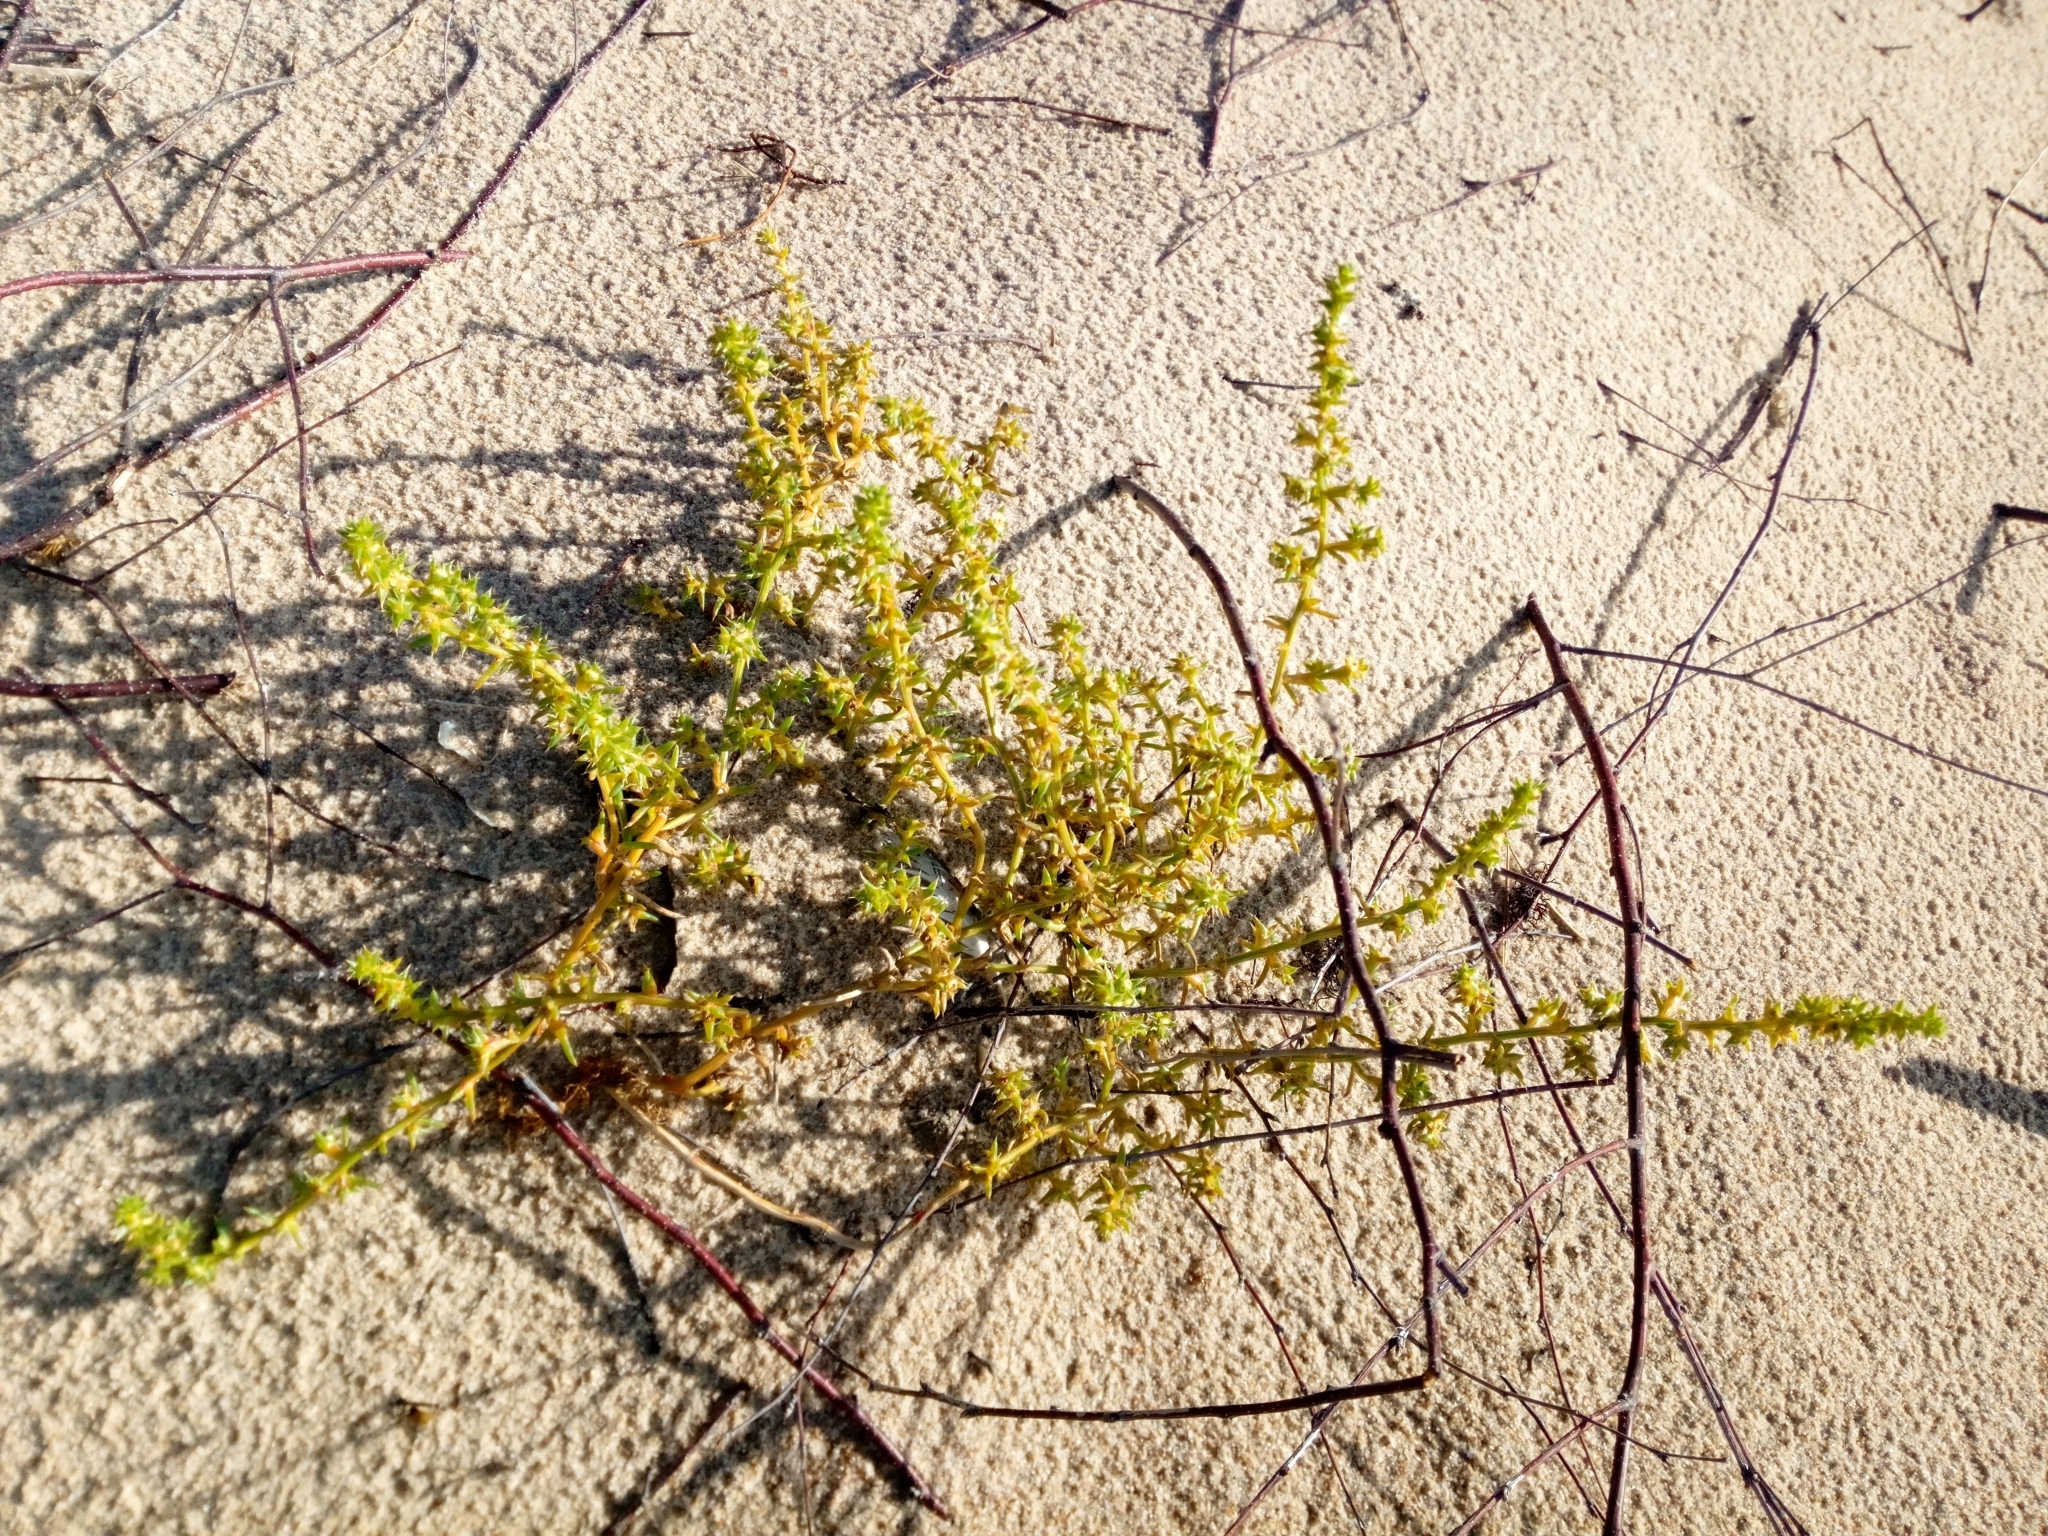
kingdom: Plantae
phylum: Tracheophyta
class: Magnoliopsida
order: Caryophyllales
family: Amaranthaceae
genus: Salsola
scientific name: Salsola kali
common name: Saltwort
